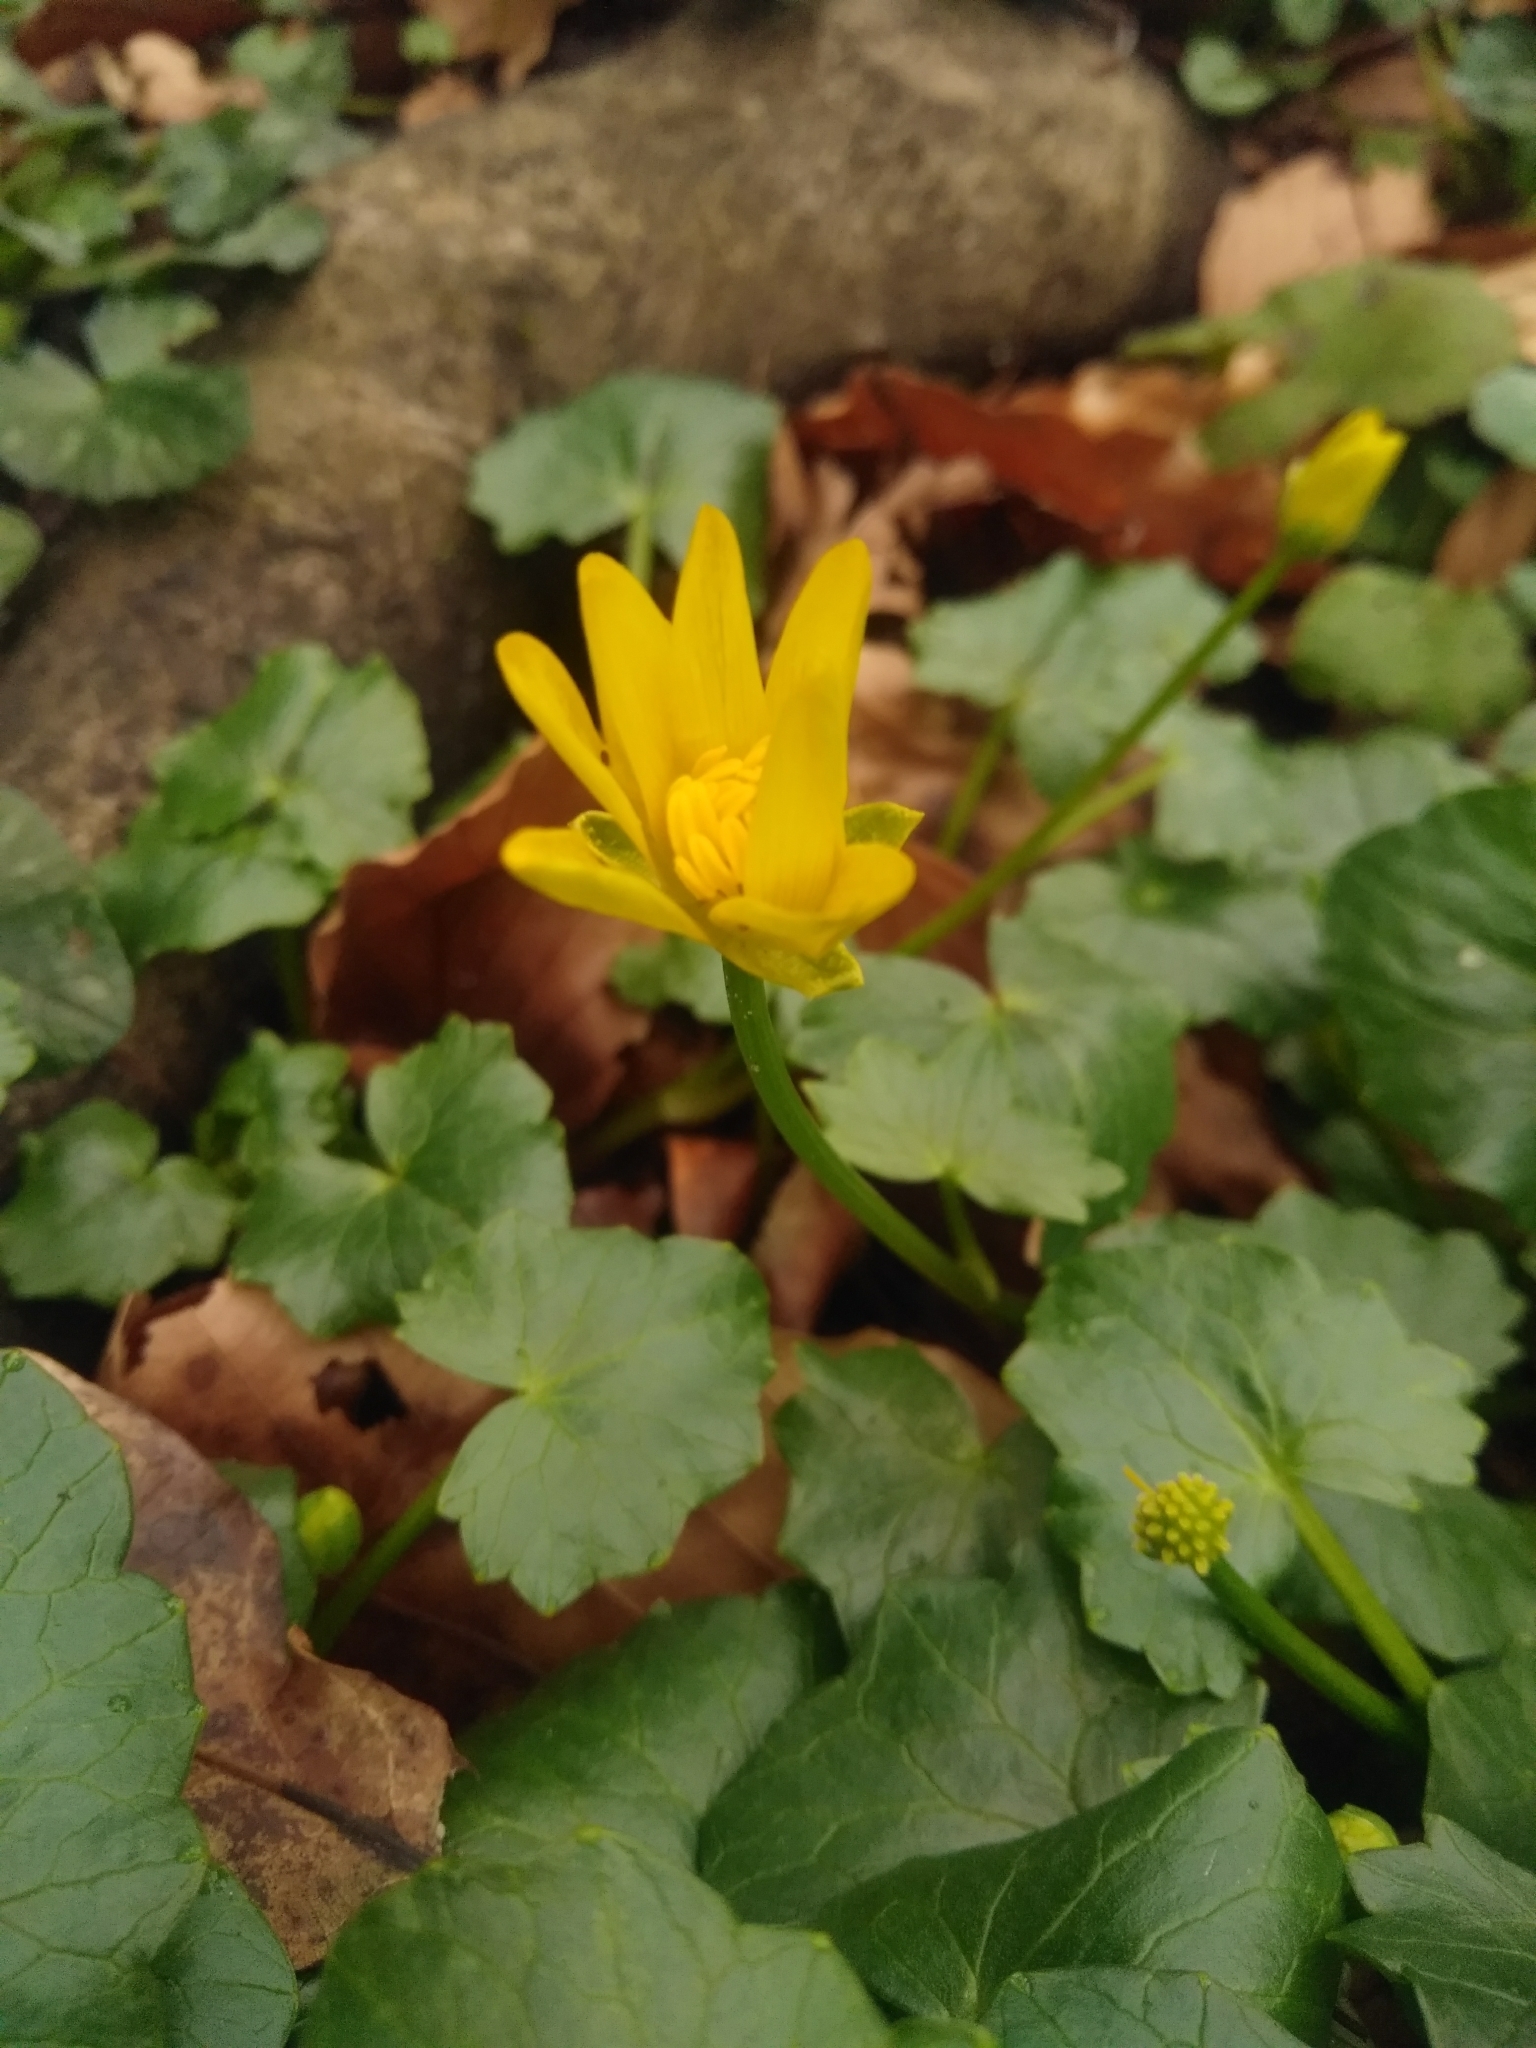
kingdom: Plantae
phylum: Tracheophyta
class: Magnoliopsida
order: Ranunculales
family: Ranunculaceae
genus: Ficaria
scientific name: Ficaria ambigua
